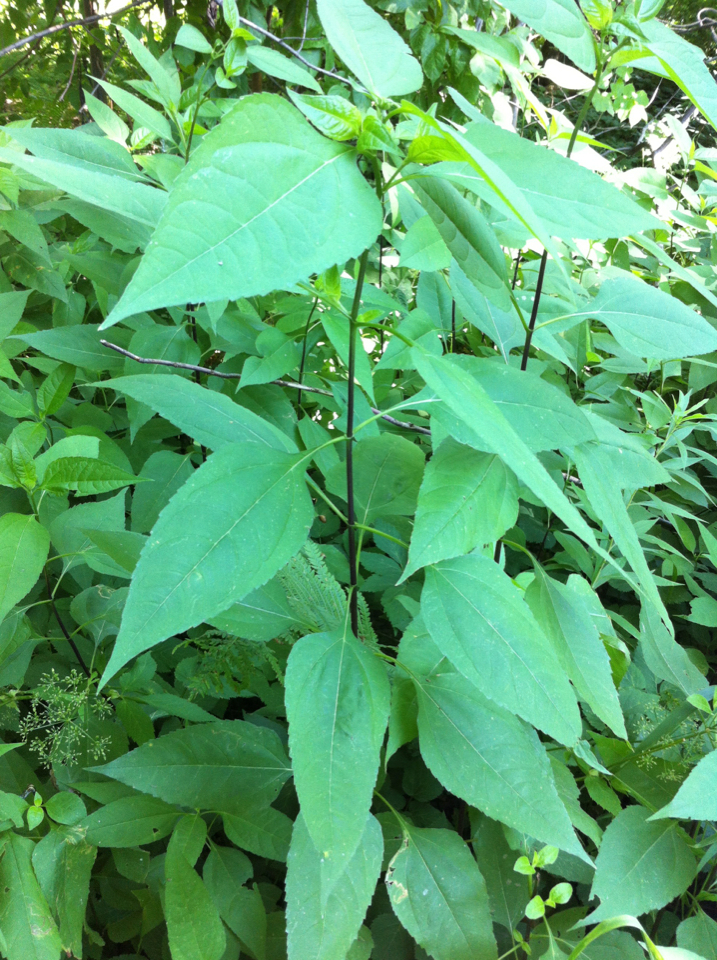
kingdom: Plantae
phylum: Tracheophyta
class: Magnoliopsida
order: Asterales
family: Asteraceae
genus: Helianthus
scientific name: Helianthus decapetalus
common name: Thin-leaved sunflower
